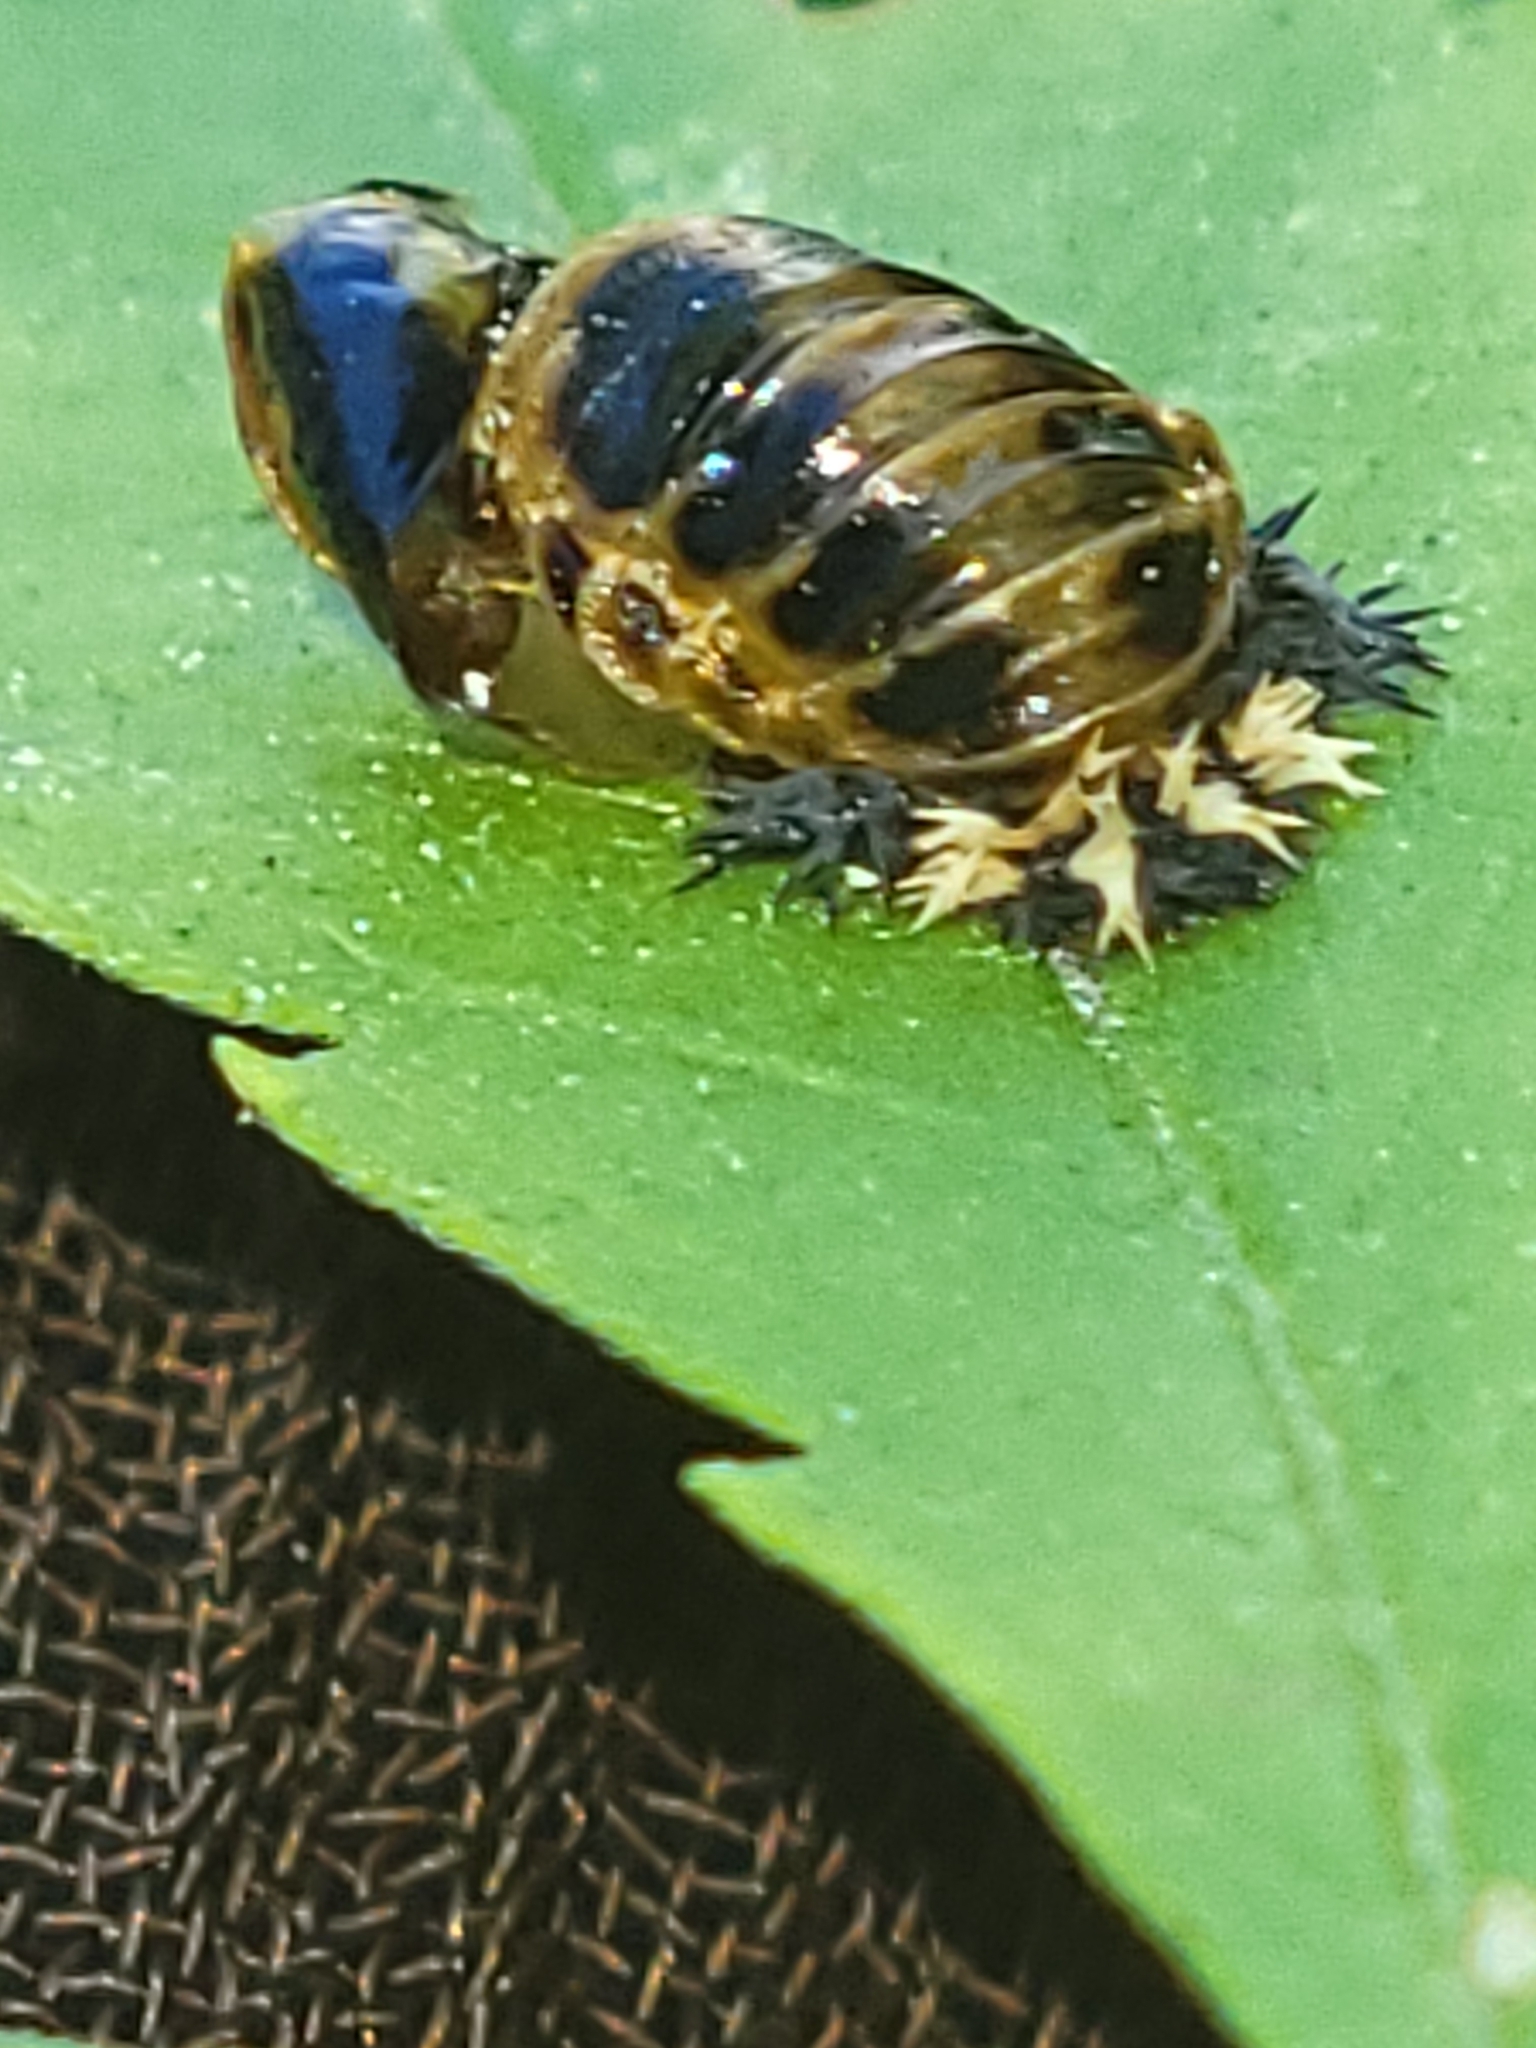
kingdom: Animalia
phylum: Arthropoda
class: Insecta
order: Coleoptera
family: Coccinellidae
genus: Harmonia
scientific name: Harmonia axyridis
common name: Harlequin ladybird
